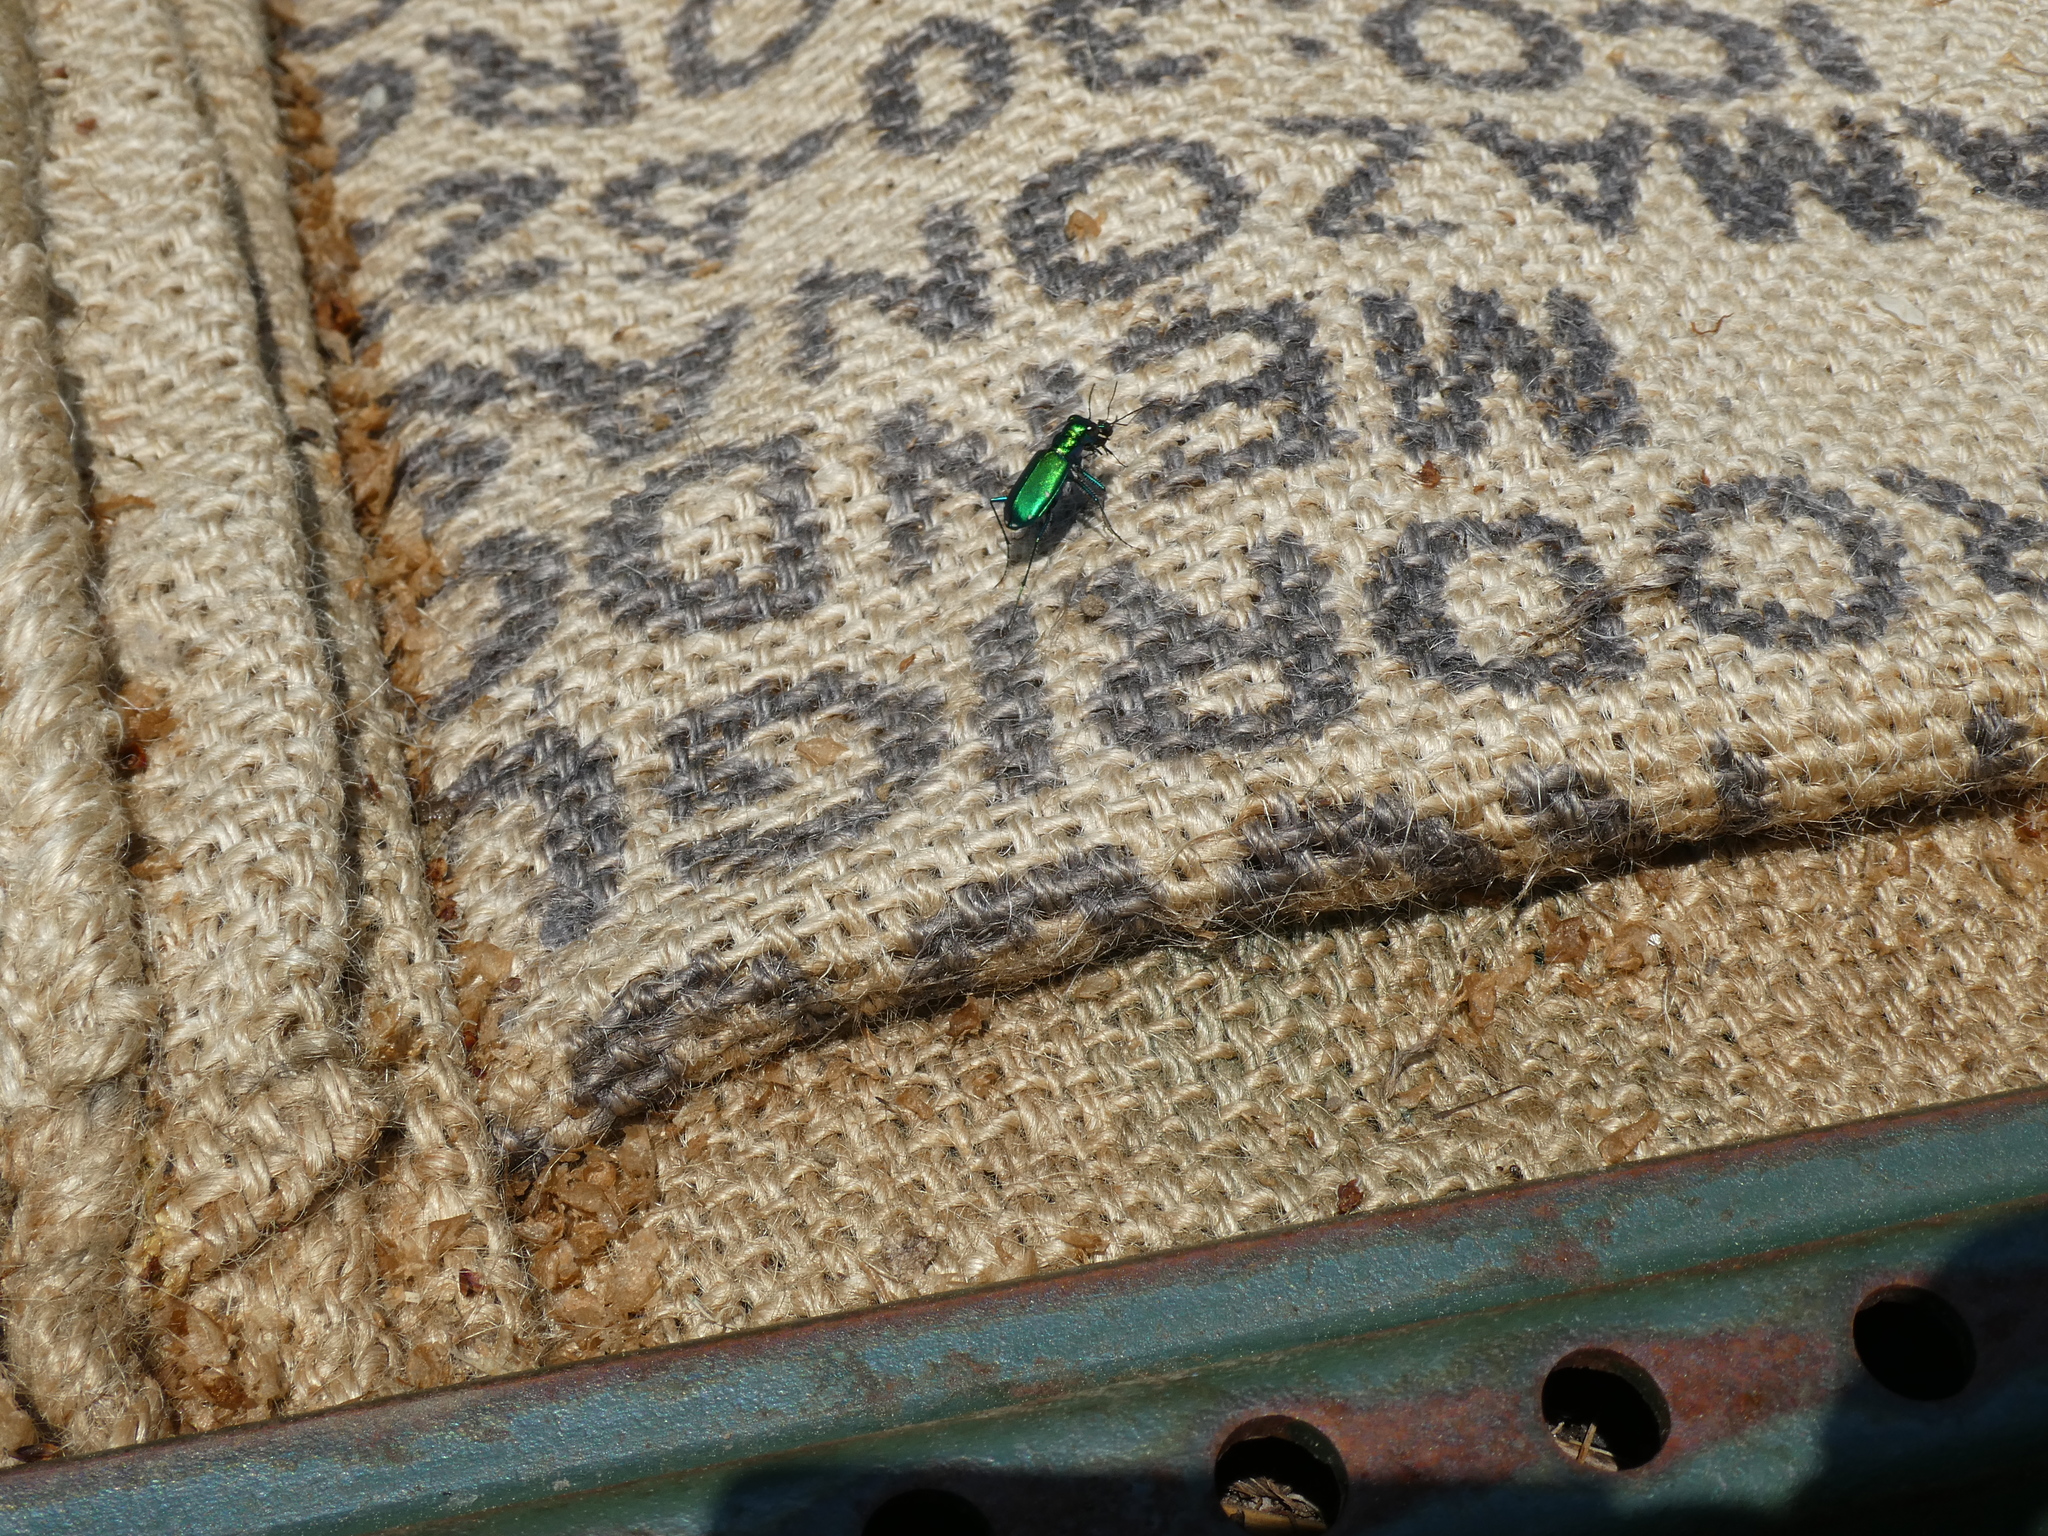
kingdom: Animalia
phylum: Arthropoda
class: Insecta
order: Coleoptera
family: Carabidae
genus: Cicindela
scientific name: Cicindela sexguttata
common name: Six-spotted tiger beetle
